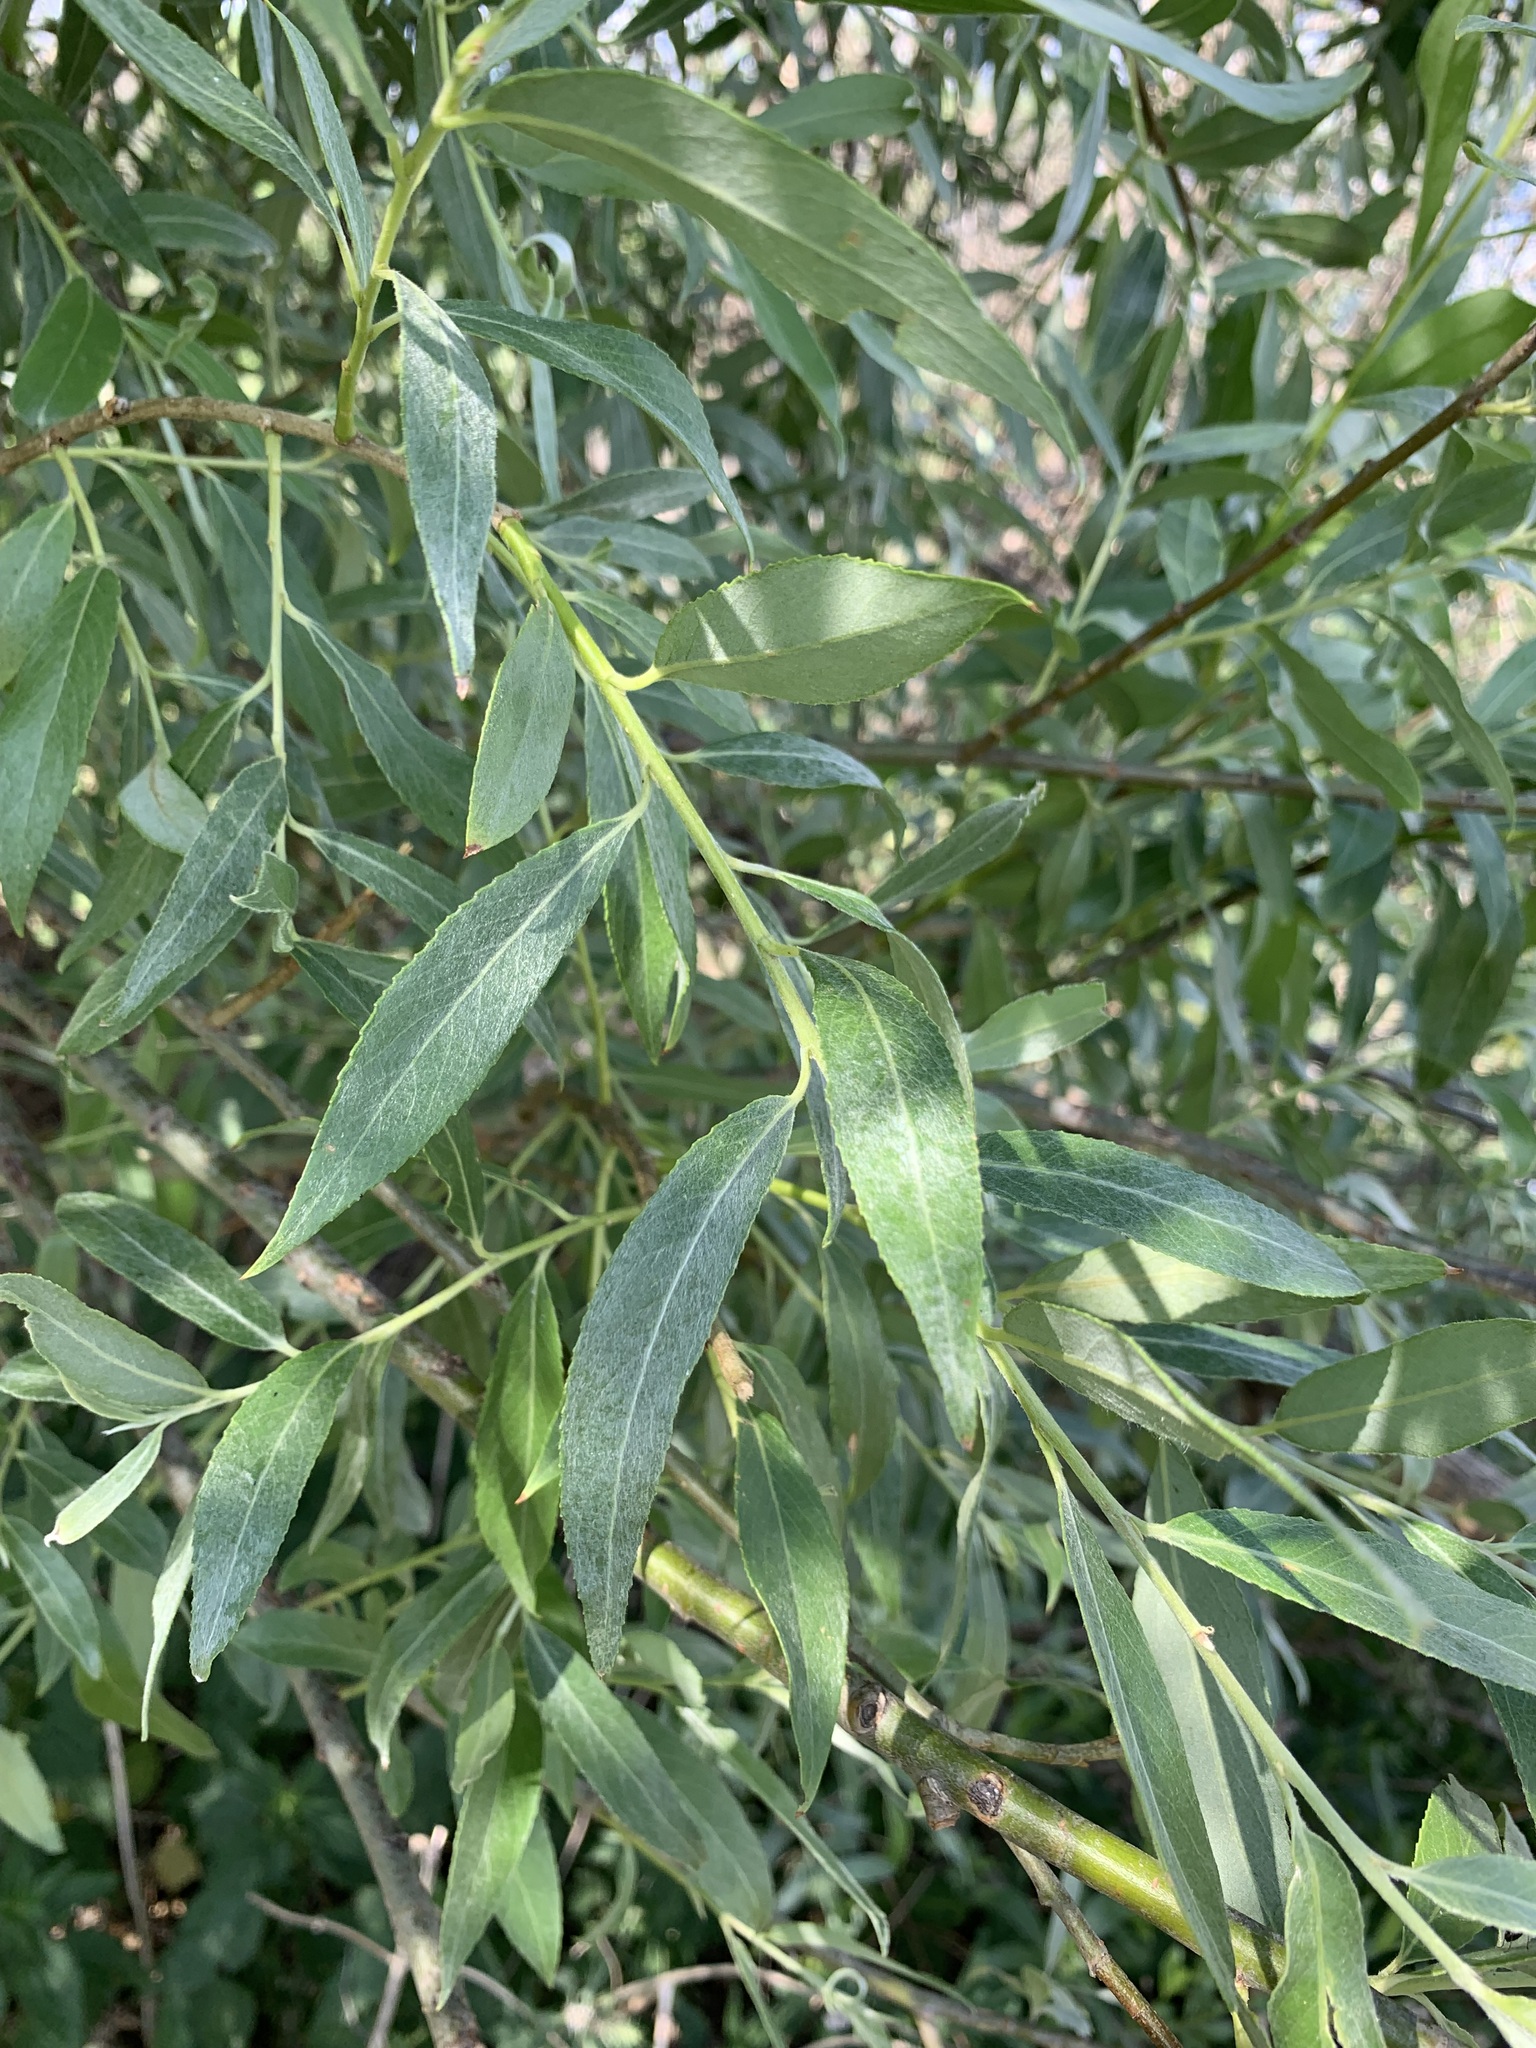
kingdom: Plantae
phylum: Tracheophyta
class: Magnoliopsida
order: Malpighiales
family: Salicaceae
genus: Salix
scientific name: Salix alba
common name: White willow
